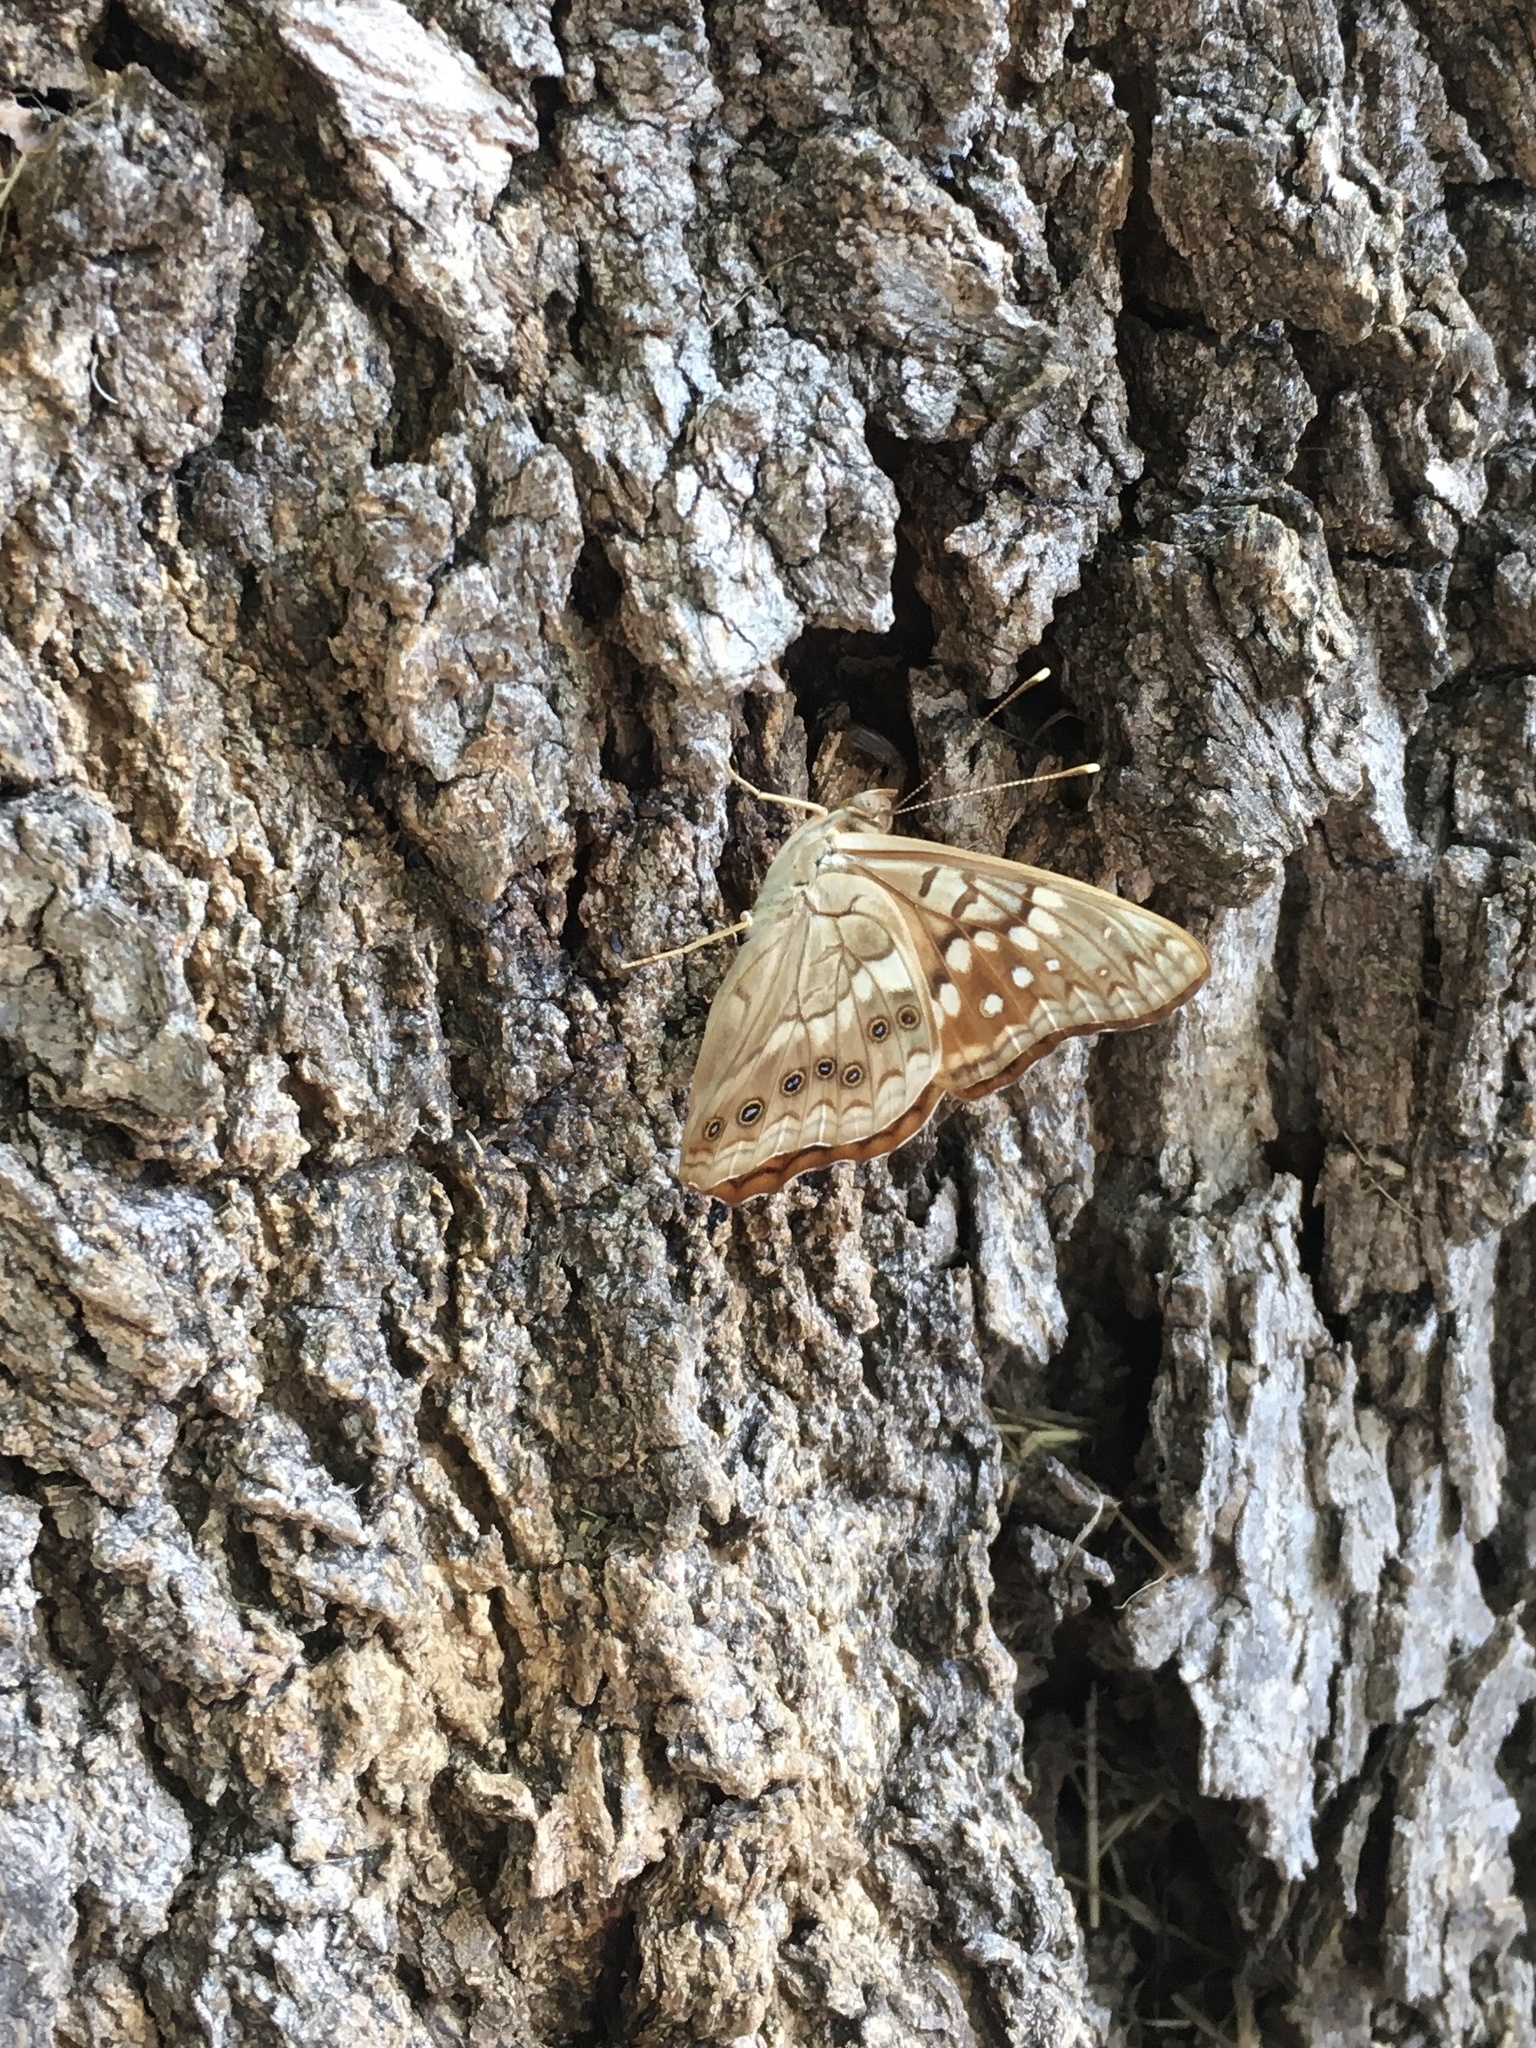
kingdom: Animalia
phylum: Arthropoda
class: Insecta
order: Lepidoptera
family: Nymphalidae
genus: Asterocampa
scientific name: Asterocampa clyton
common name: Tawny emperor
